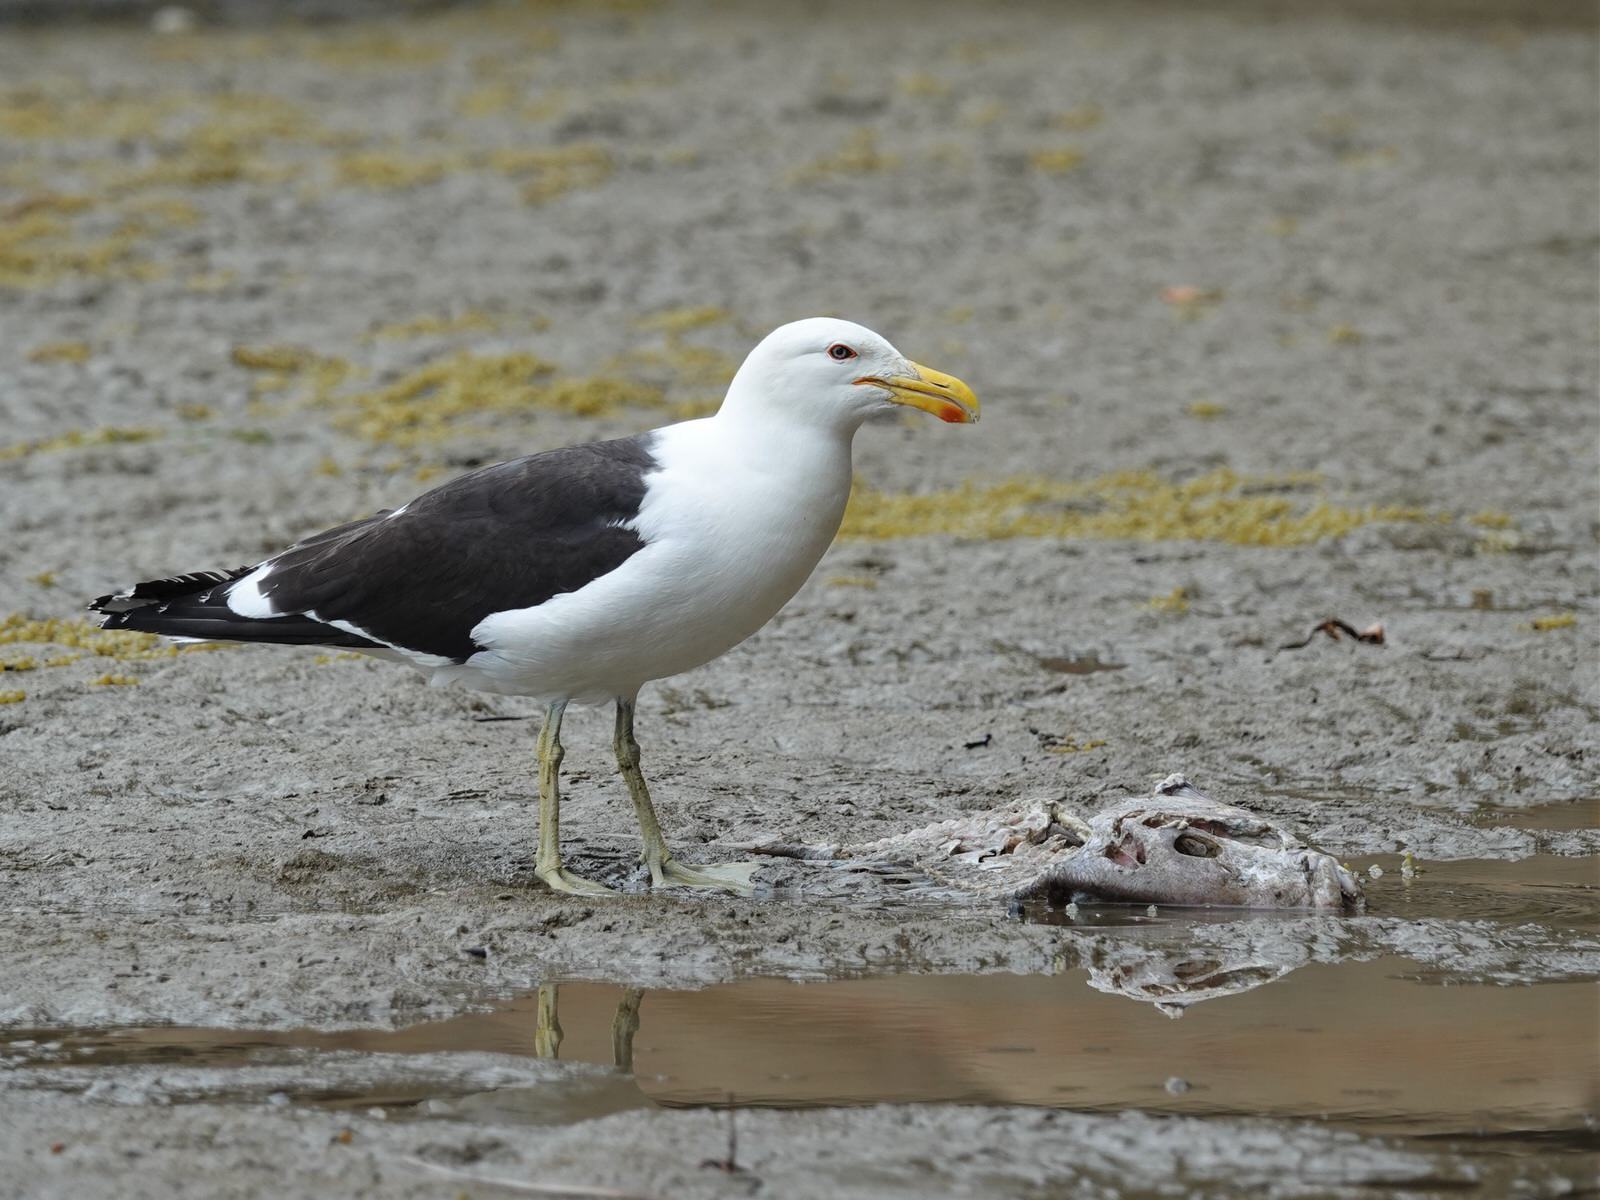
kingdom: Animalia
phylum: Chordata
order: Perciformes
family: Sparidae
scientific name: Sparidae
